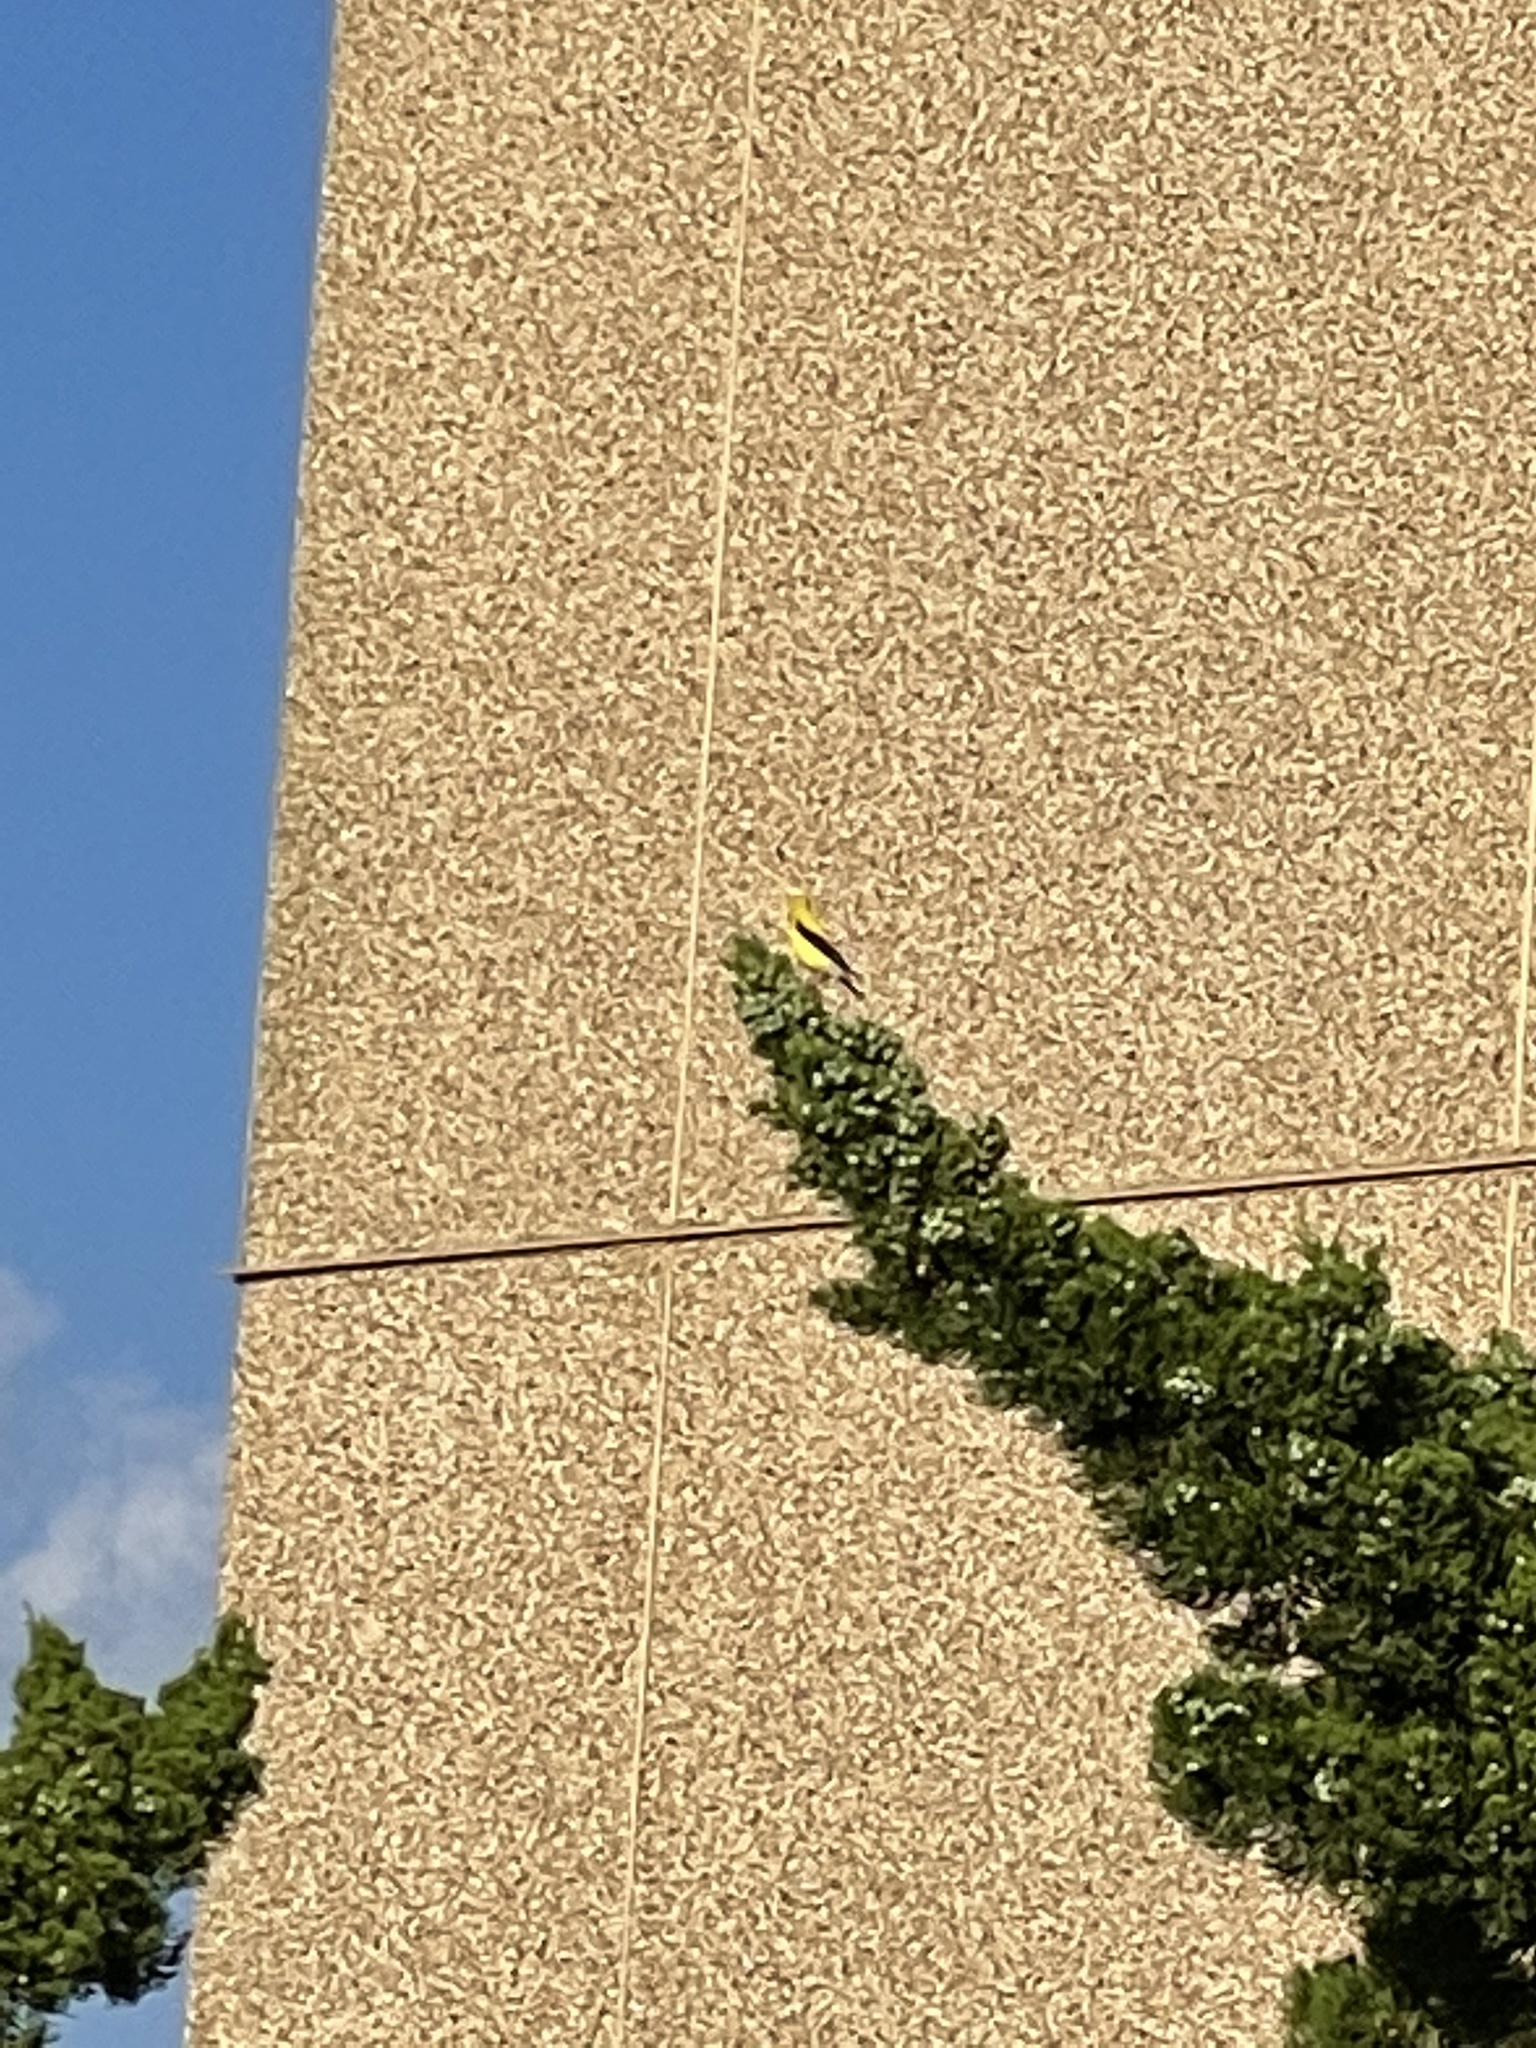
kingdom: Animalia
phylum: Chordata
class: Aves
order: Passeriformes
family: Fringillidae
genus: Spinus
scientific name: Spinus tristis
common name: American goldfinch
